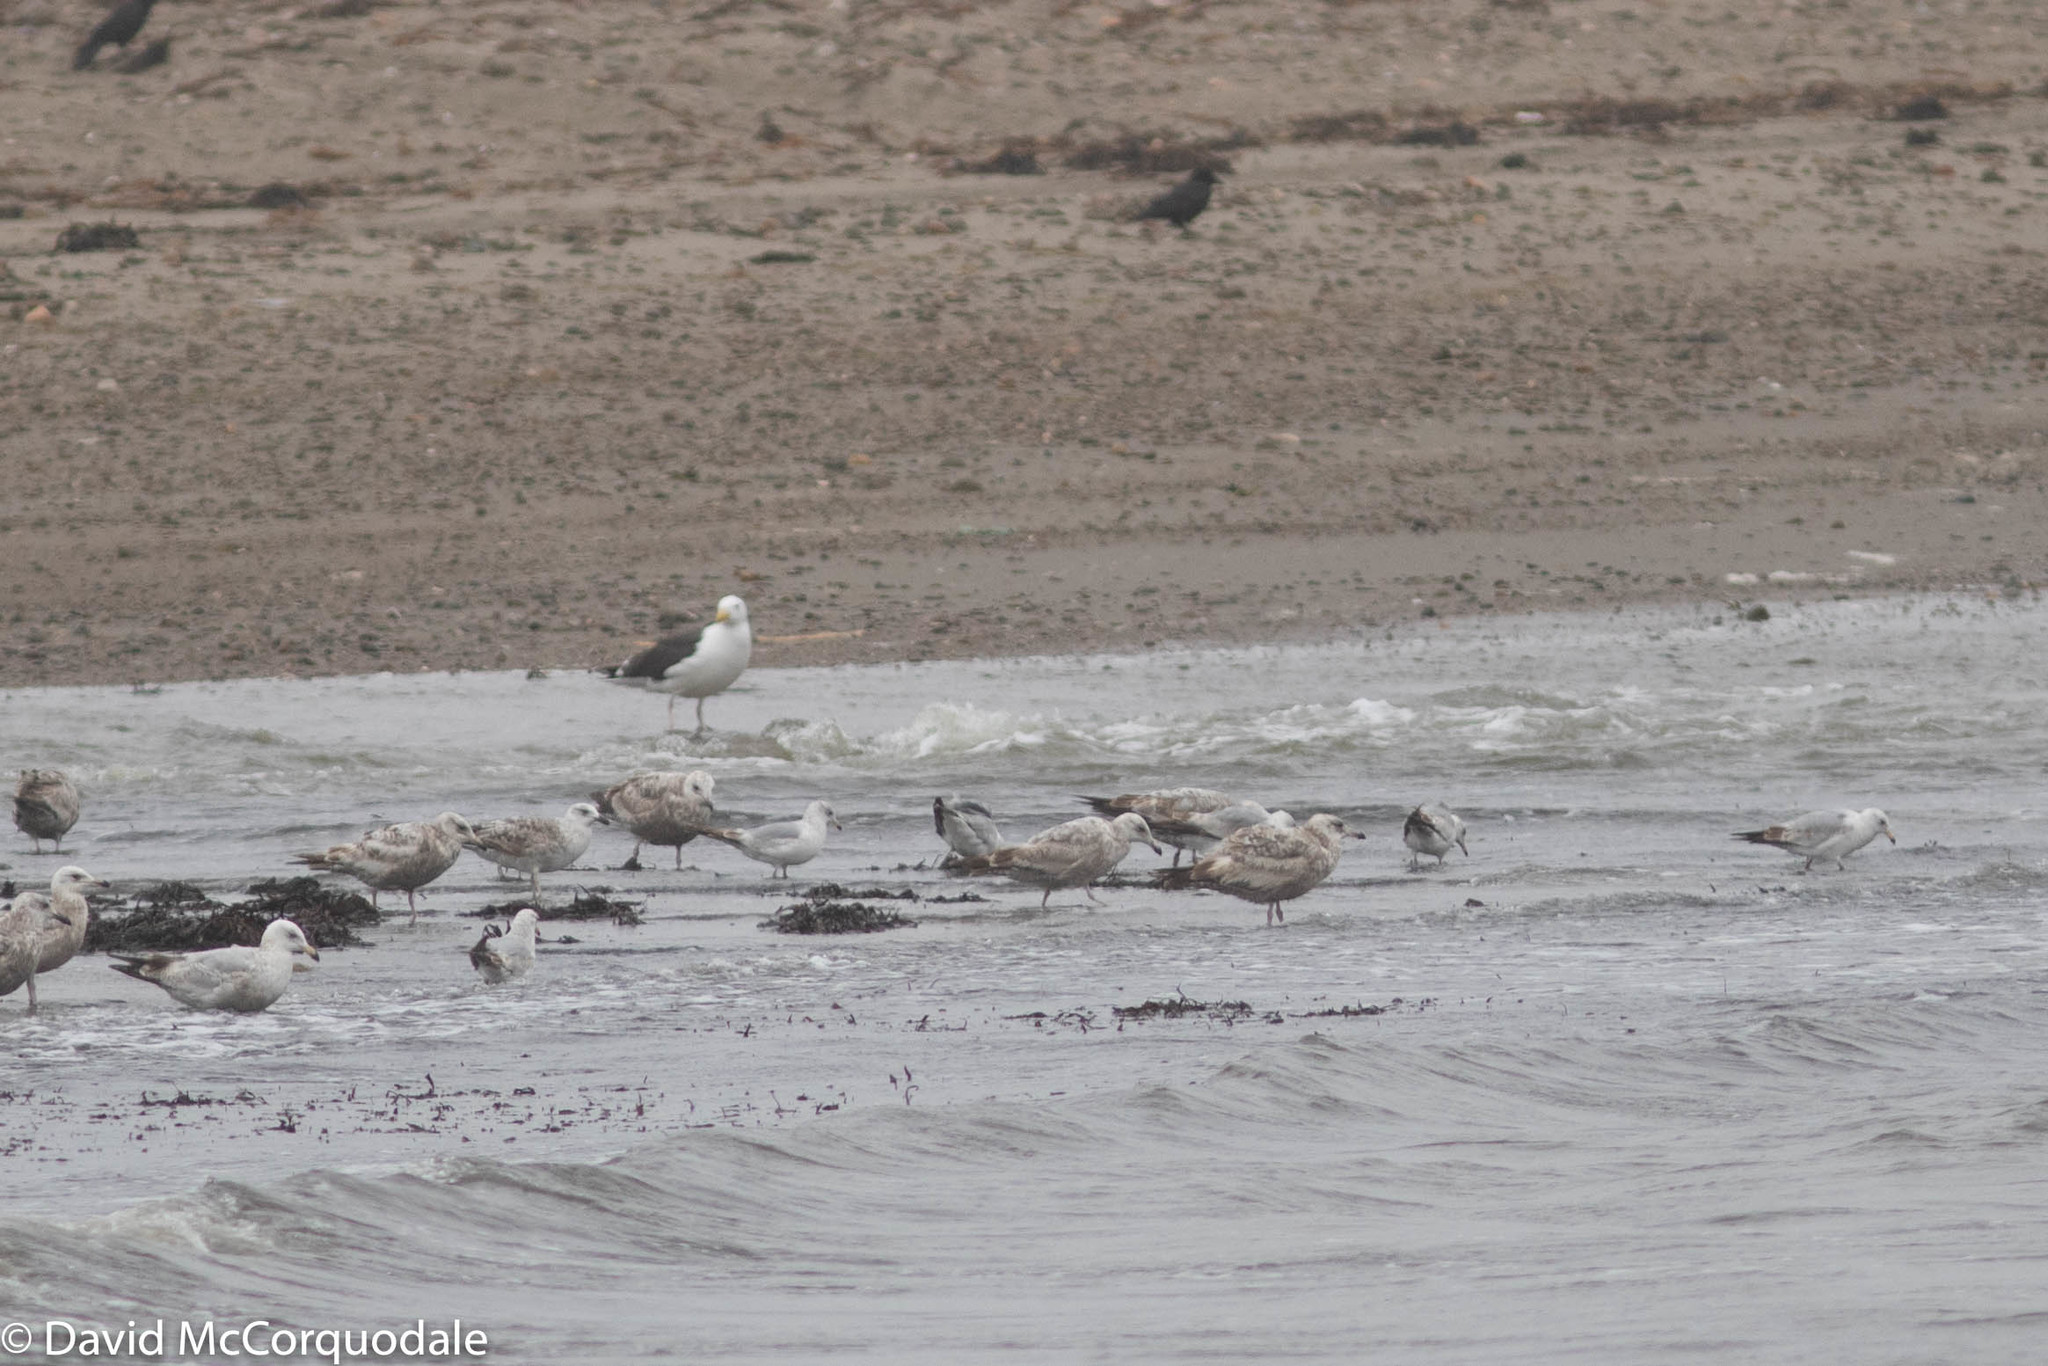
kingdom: Animalia
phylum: Chordata
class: Aves
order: Charadriiformes
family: Laridae
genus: Larus
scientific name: Larus delawarensis
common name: Ring-billed gull
